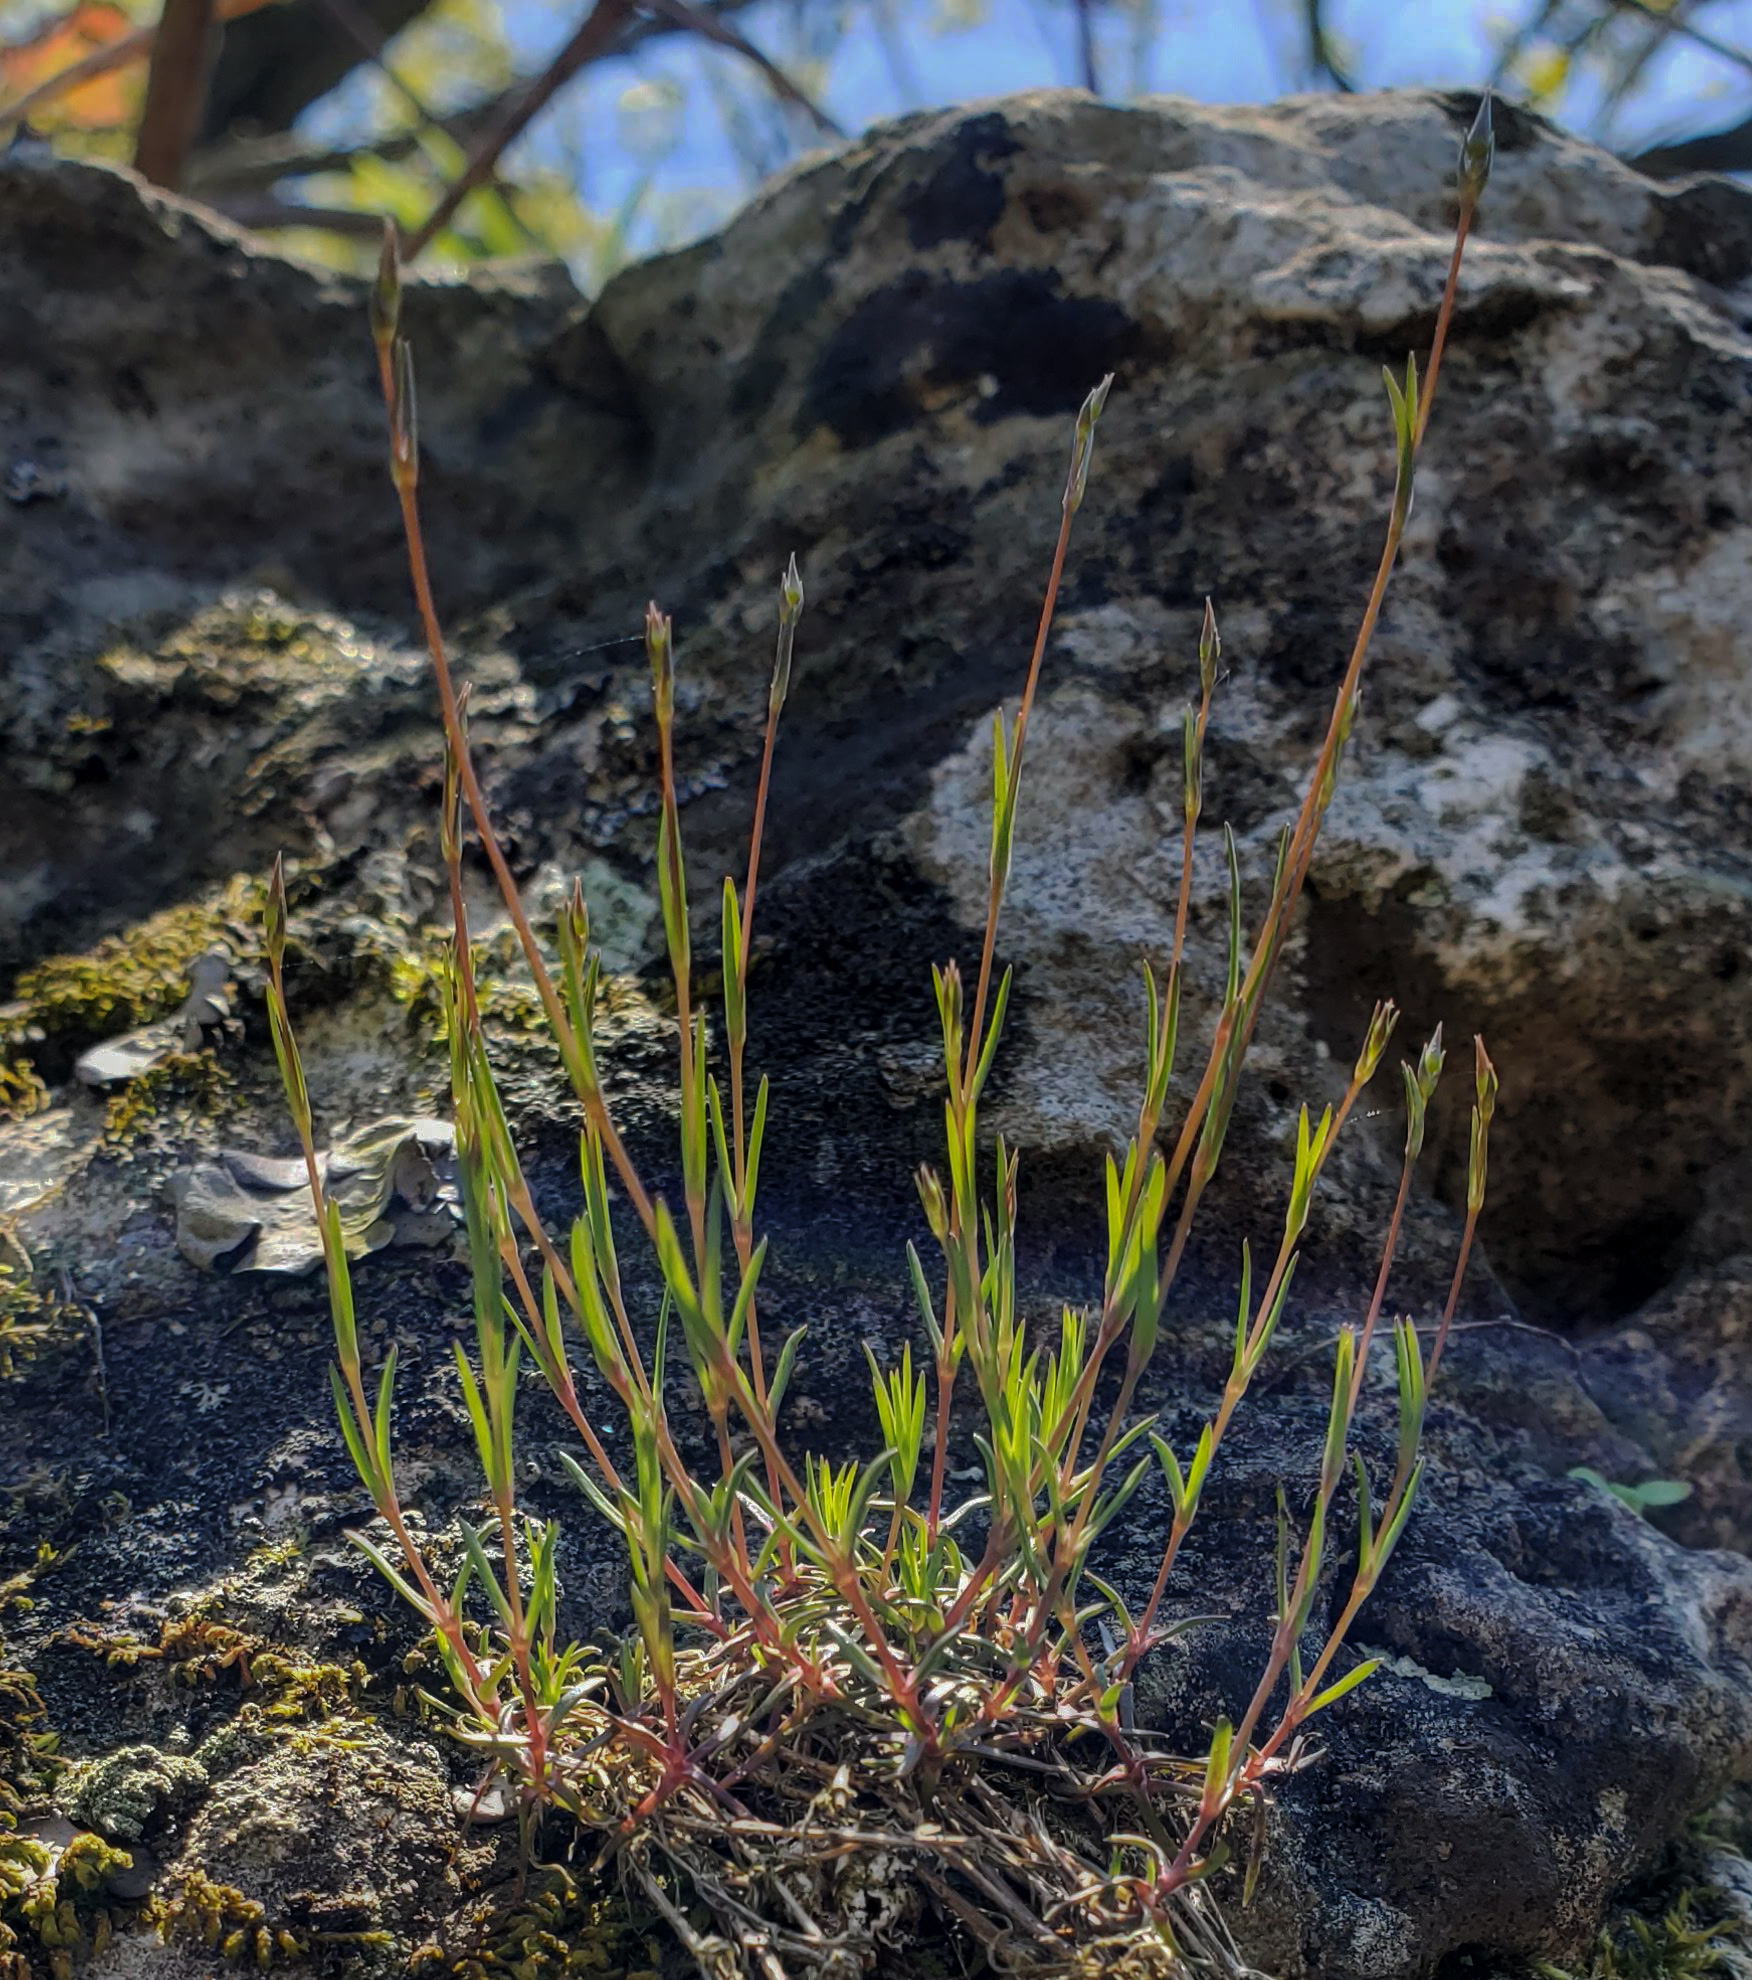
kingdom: Plantae
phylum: Tracheophyta
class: Magnoliopsida
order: Caryophyllales
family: Caryophyllaceae
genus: Sabulina
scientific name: Sabulina michauxii
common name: Michaux's stitchwort
